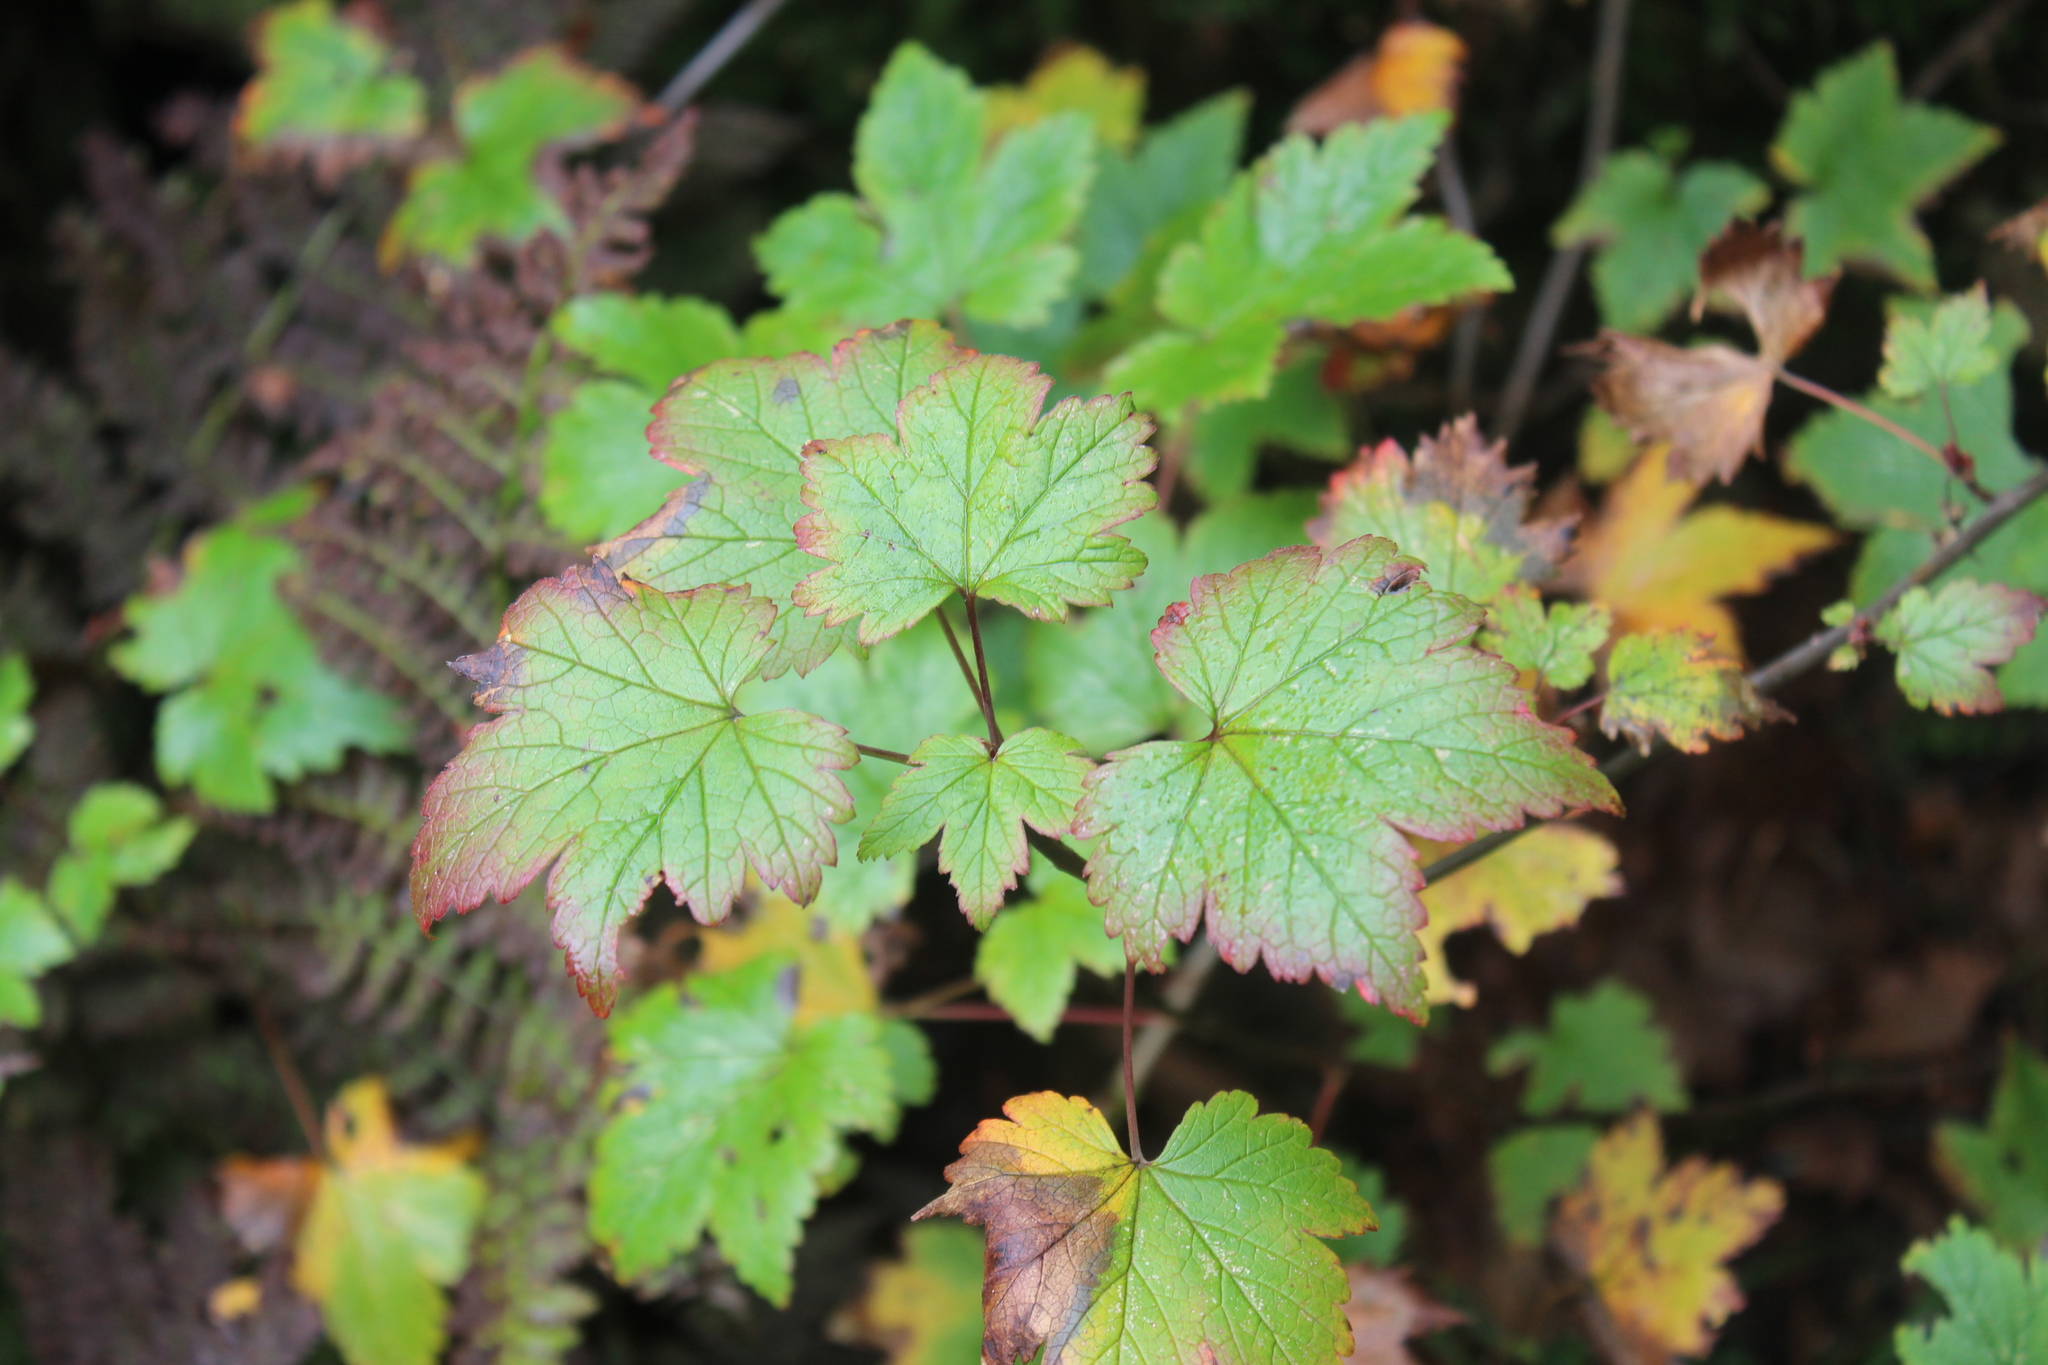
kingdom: Plantae
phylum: Tracheophyta
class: Magnoliopsida
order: Saxifragales
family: Grossulariaceae
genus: Ribes
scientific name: Ribes glandulosum
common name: Skunk currant
